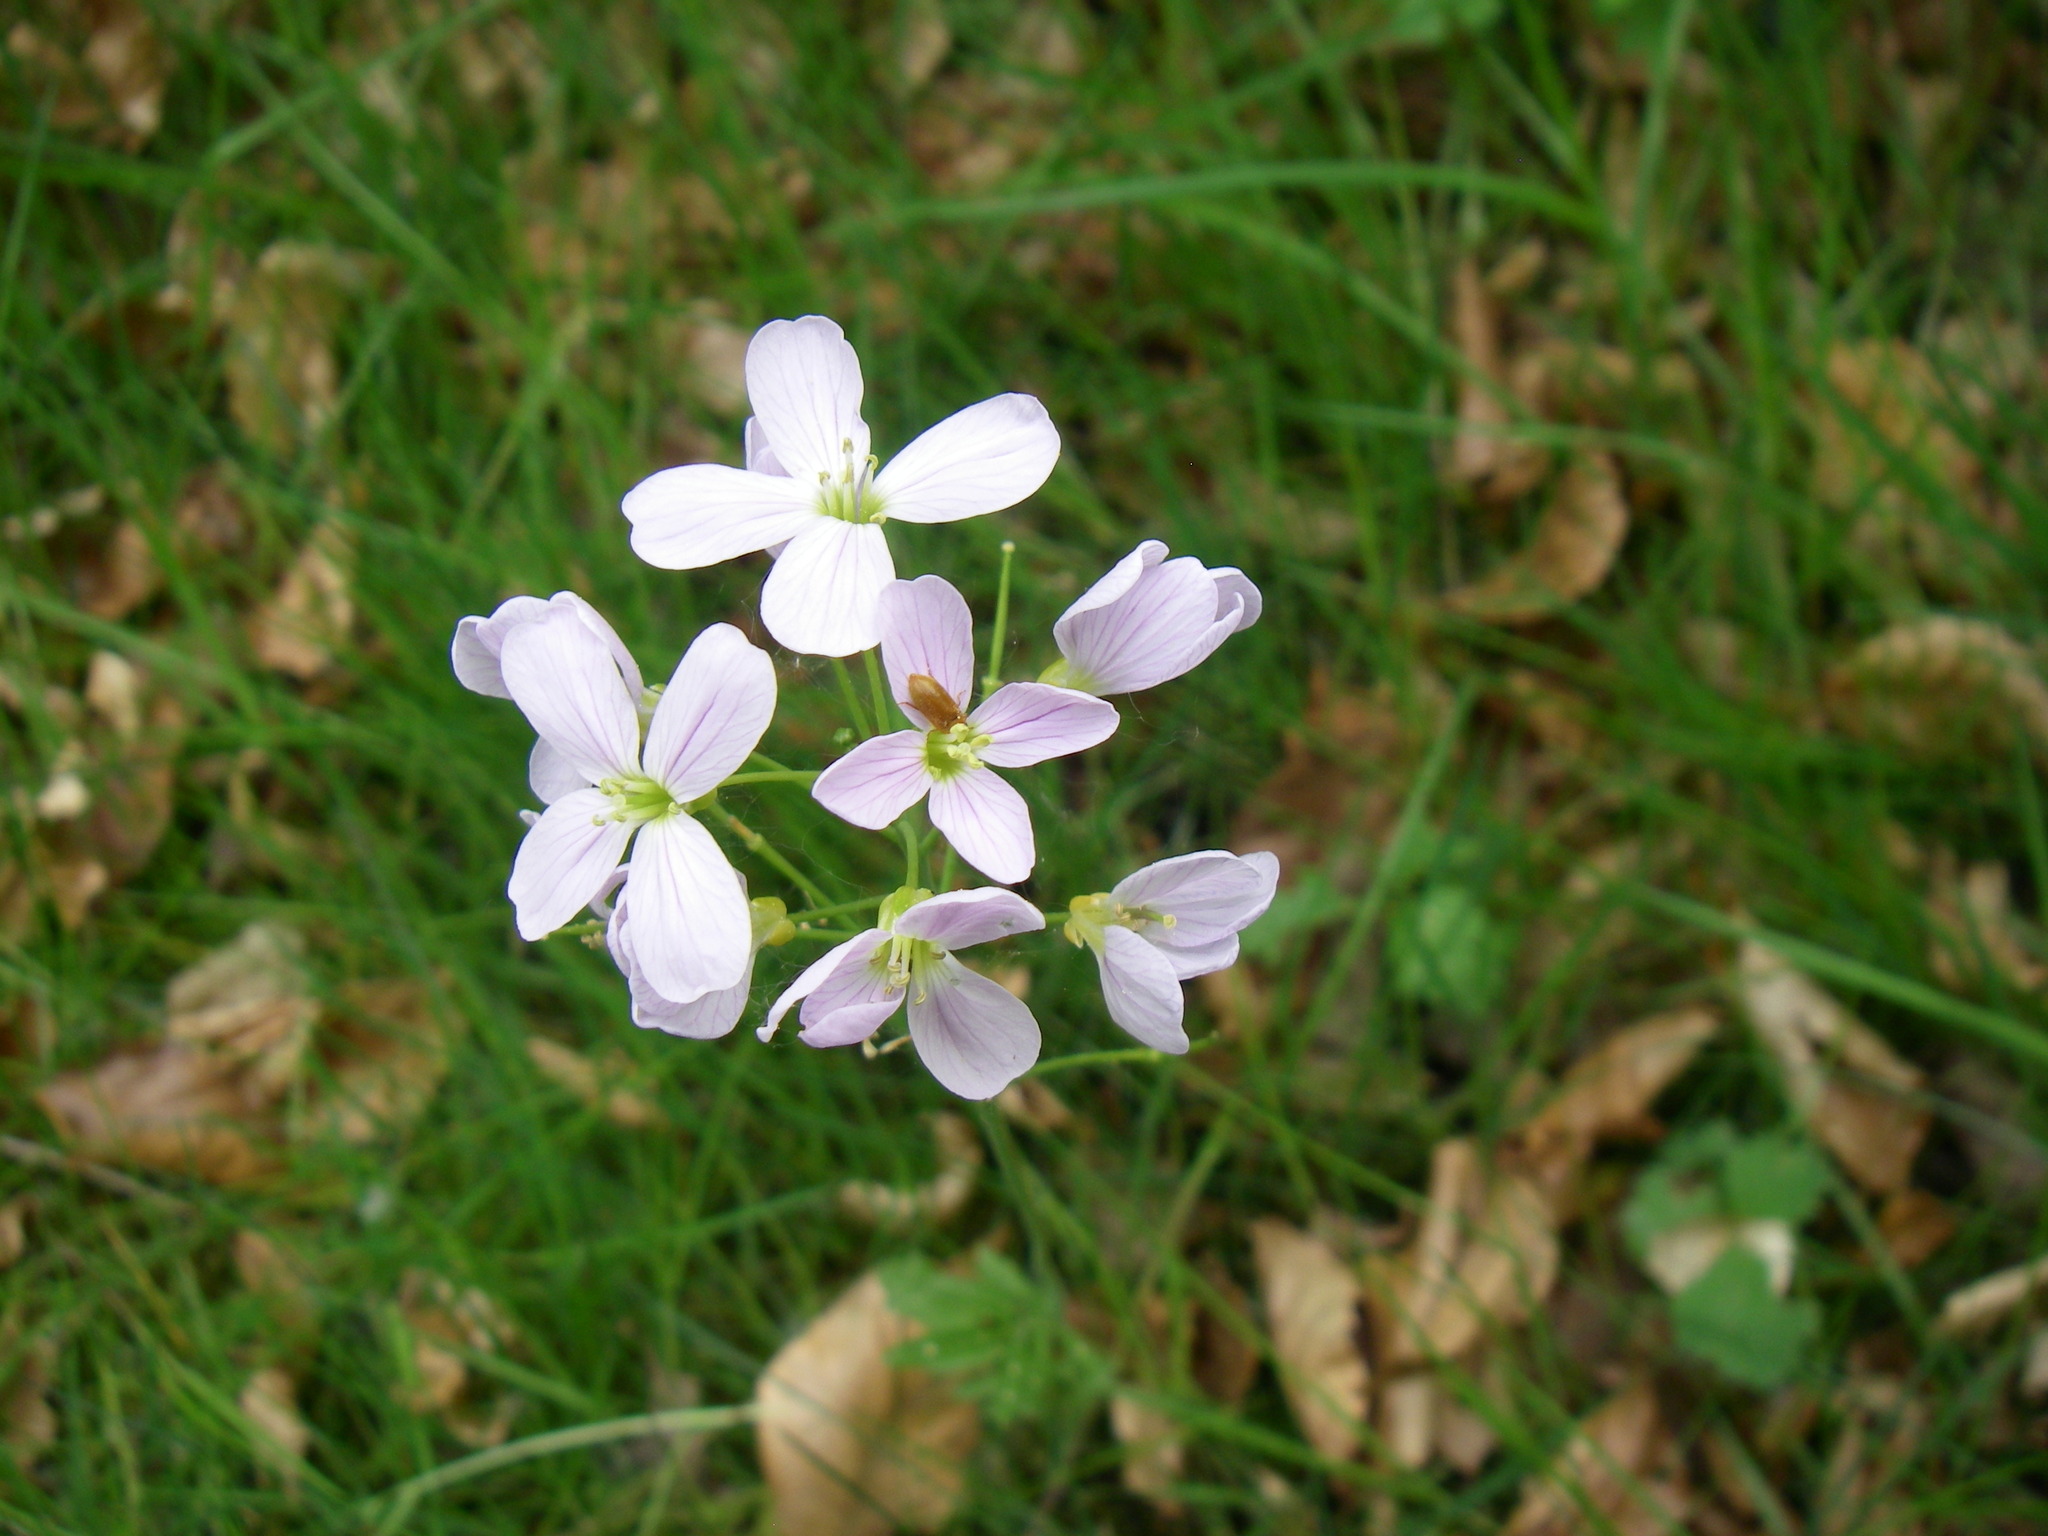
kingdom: Plantae
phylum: Tracheophyta
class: Magnoliopsida
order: Brassicales
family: Brassicaceae
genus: Cardamine
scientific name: Cardamine pratensis
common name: Cuckoo flower
